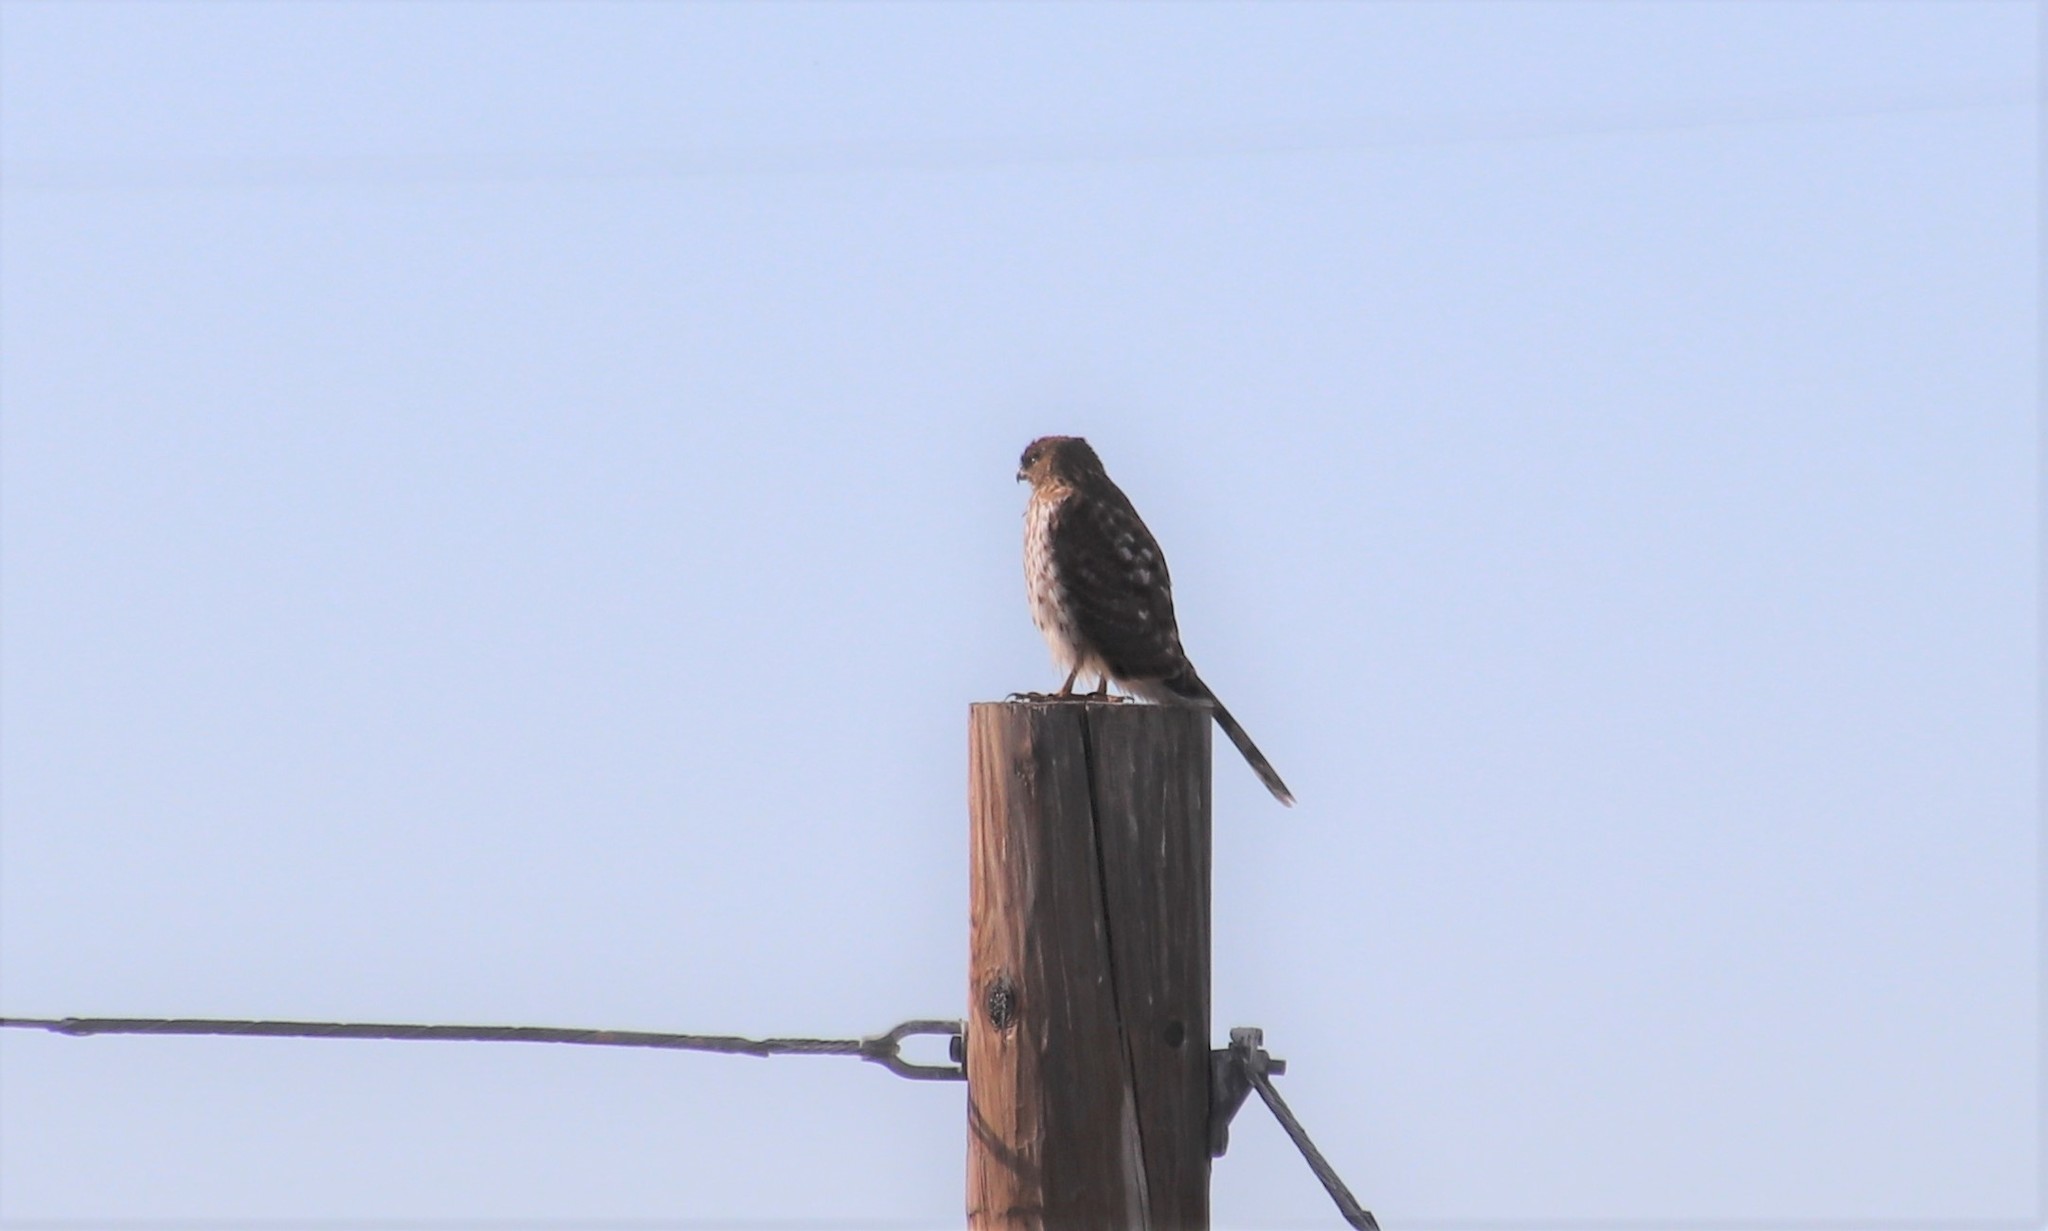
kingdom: Animalia
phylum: Chordata
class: Aves
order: Accipitriformes
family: Accipitridae
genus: Accipiter
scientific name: Accipiter cooperii
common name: Cooper's hawk
